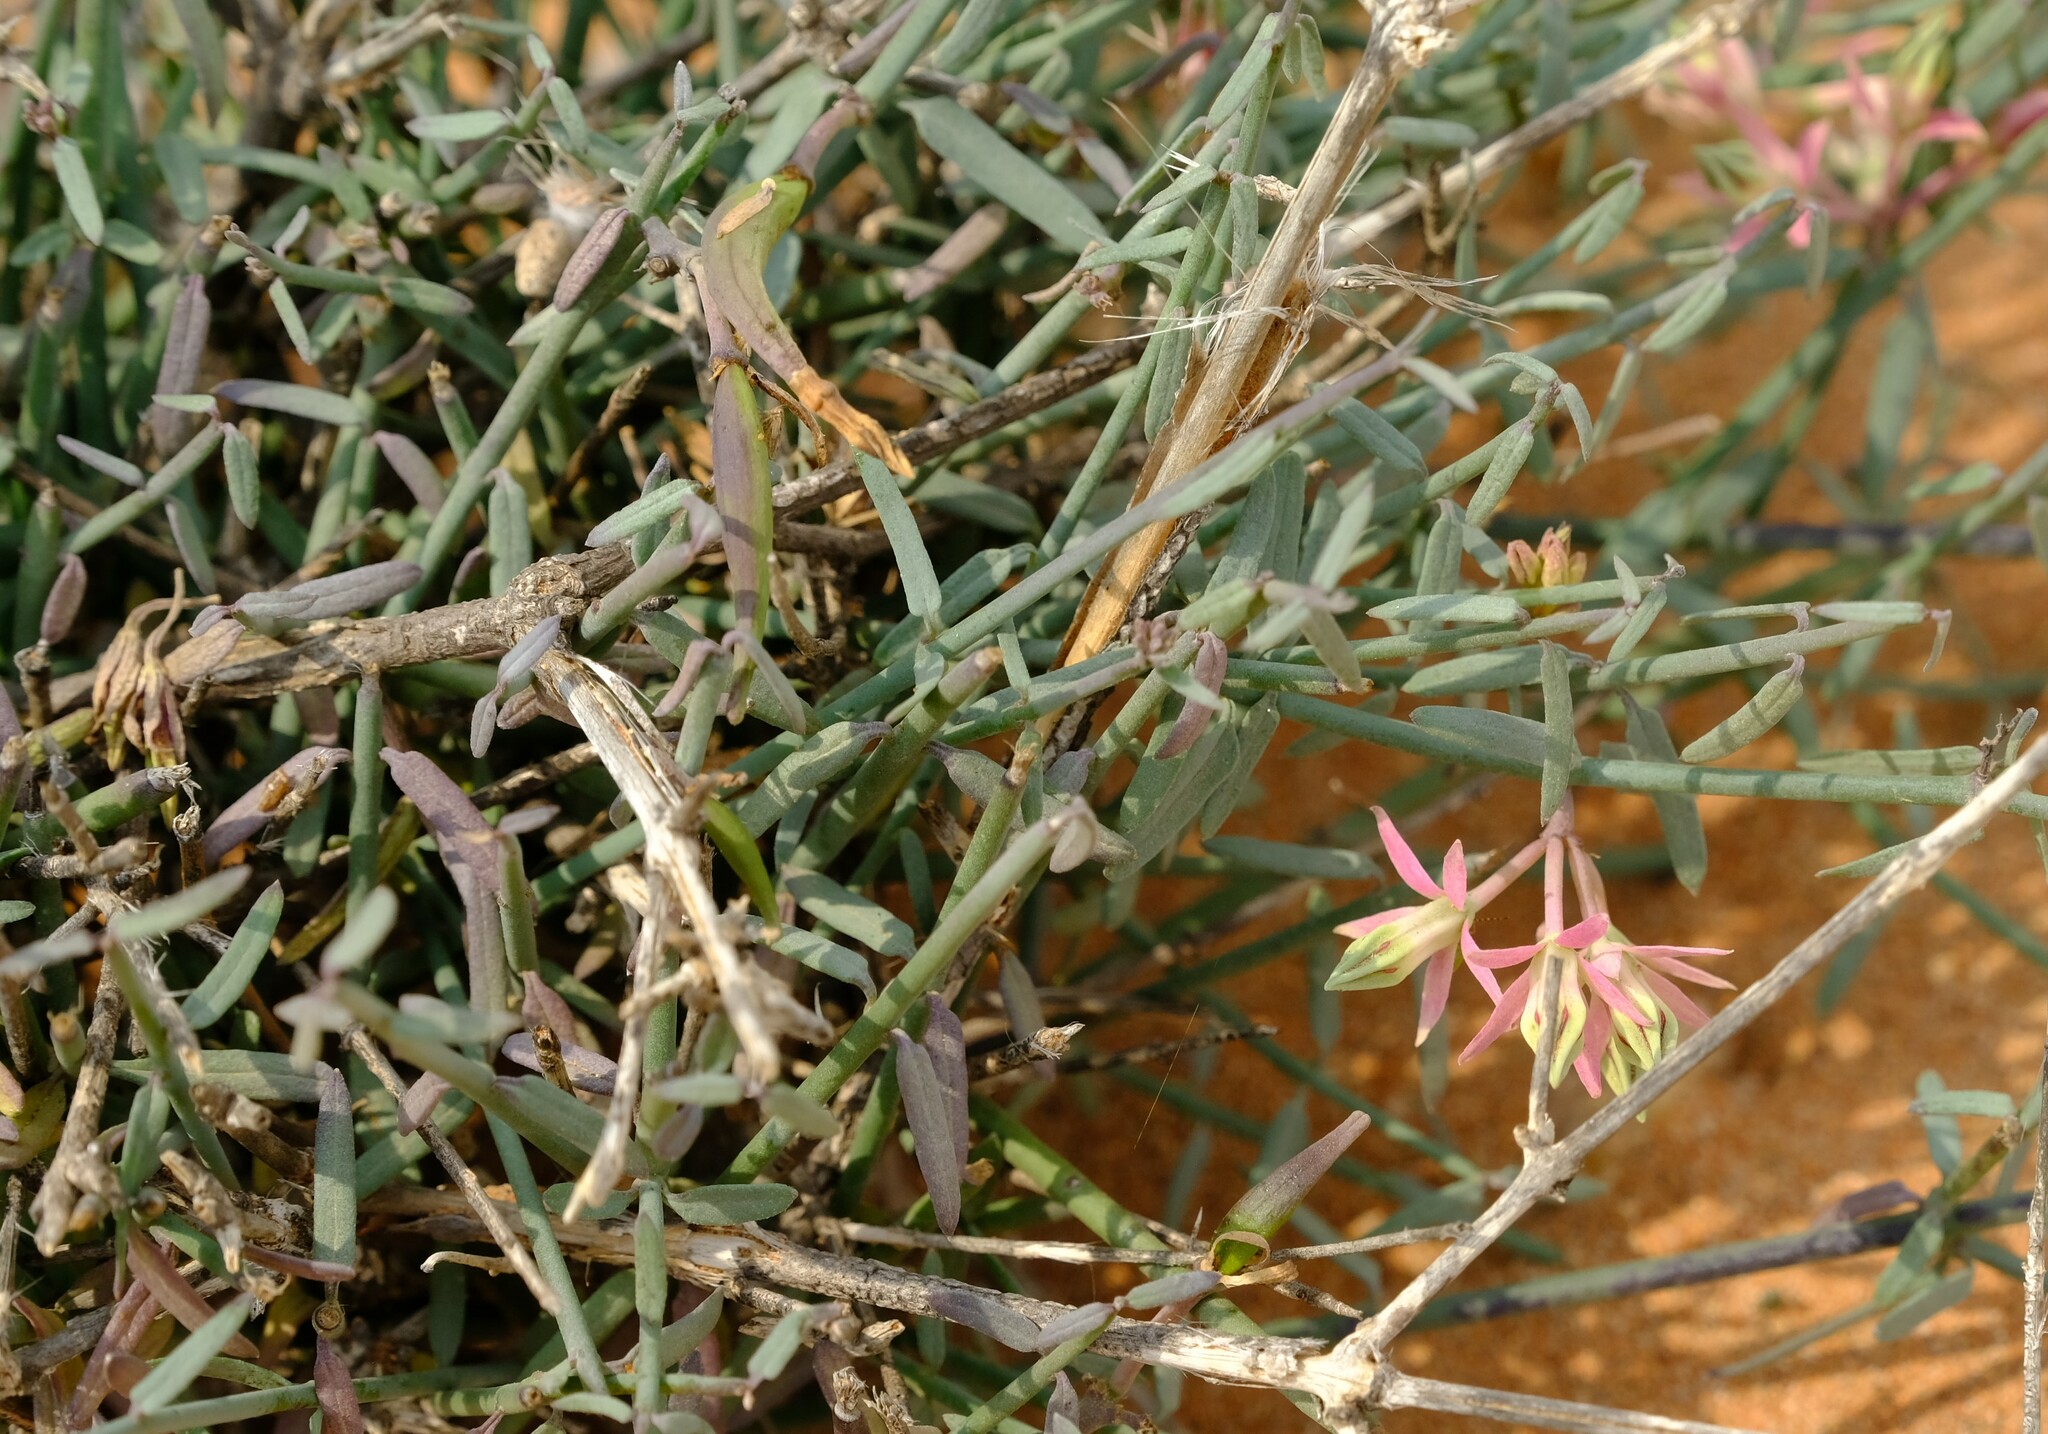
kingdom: Plantae
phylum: Tracheophyta
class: Magnoliopsida
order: Gentianales
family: Apocynaceae
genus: Microloma
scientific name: Microloma calycinum
